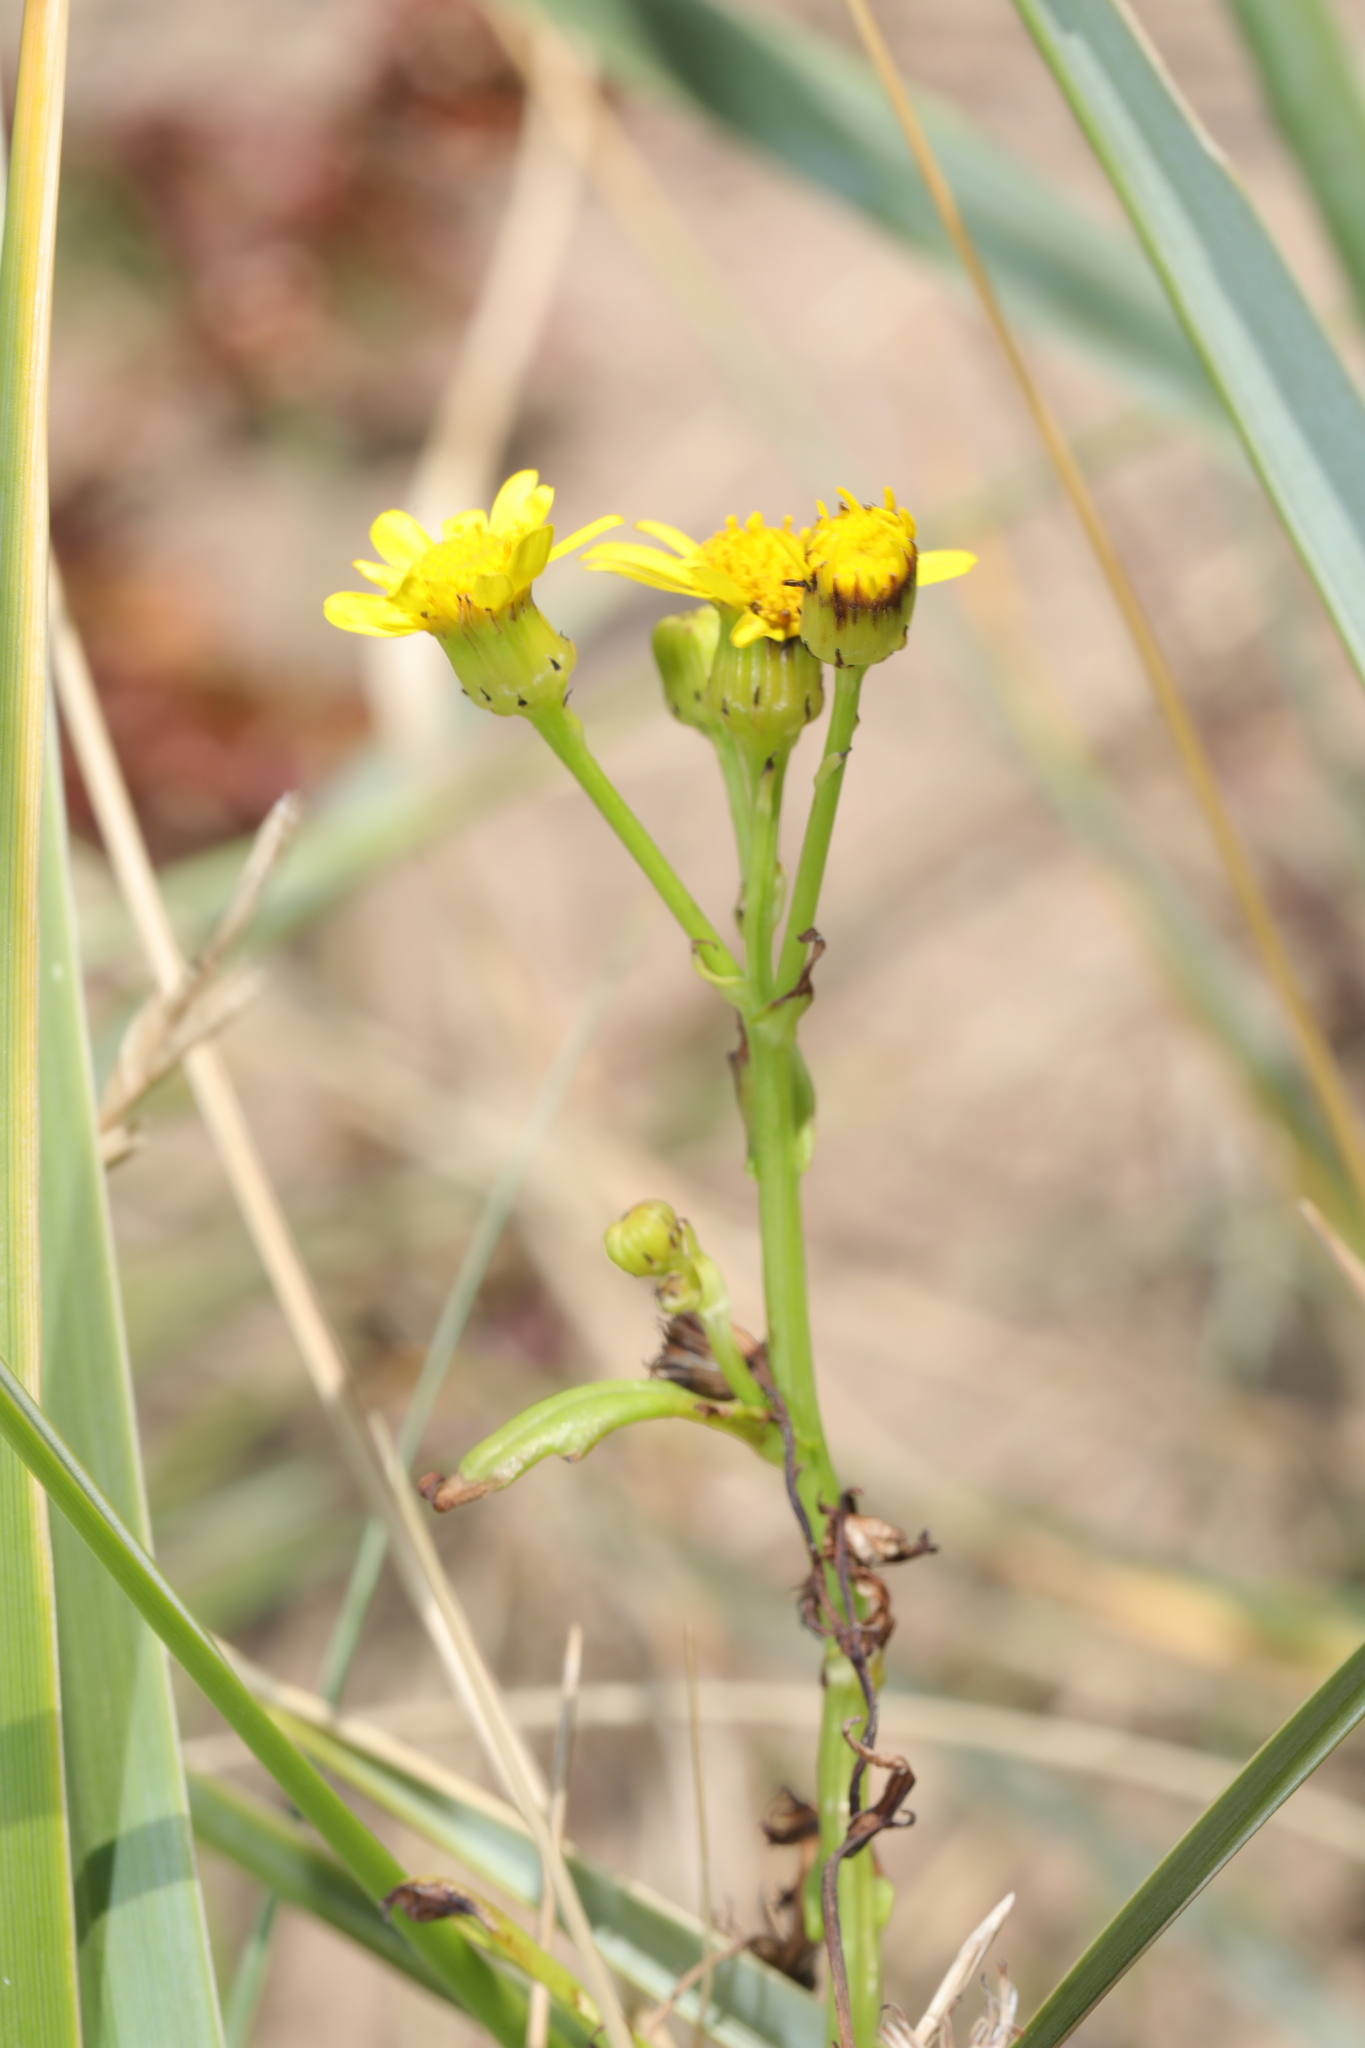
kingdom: Plantae
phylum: Tracheophyta
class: Magnoliopsida
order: Asterales
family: Asteraceae
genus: Senecio
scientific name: Senecio squalidus
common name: Oxford ragwort
